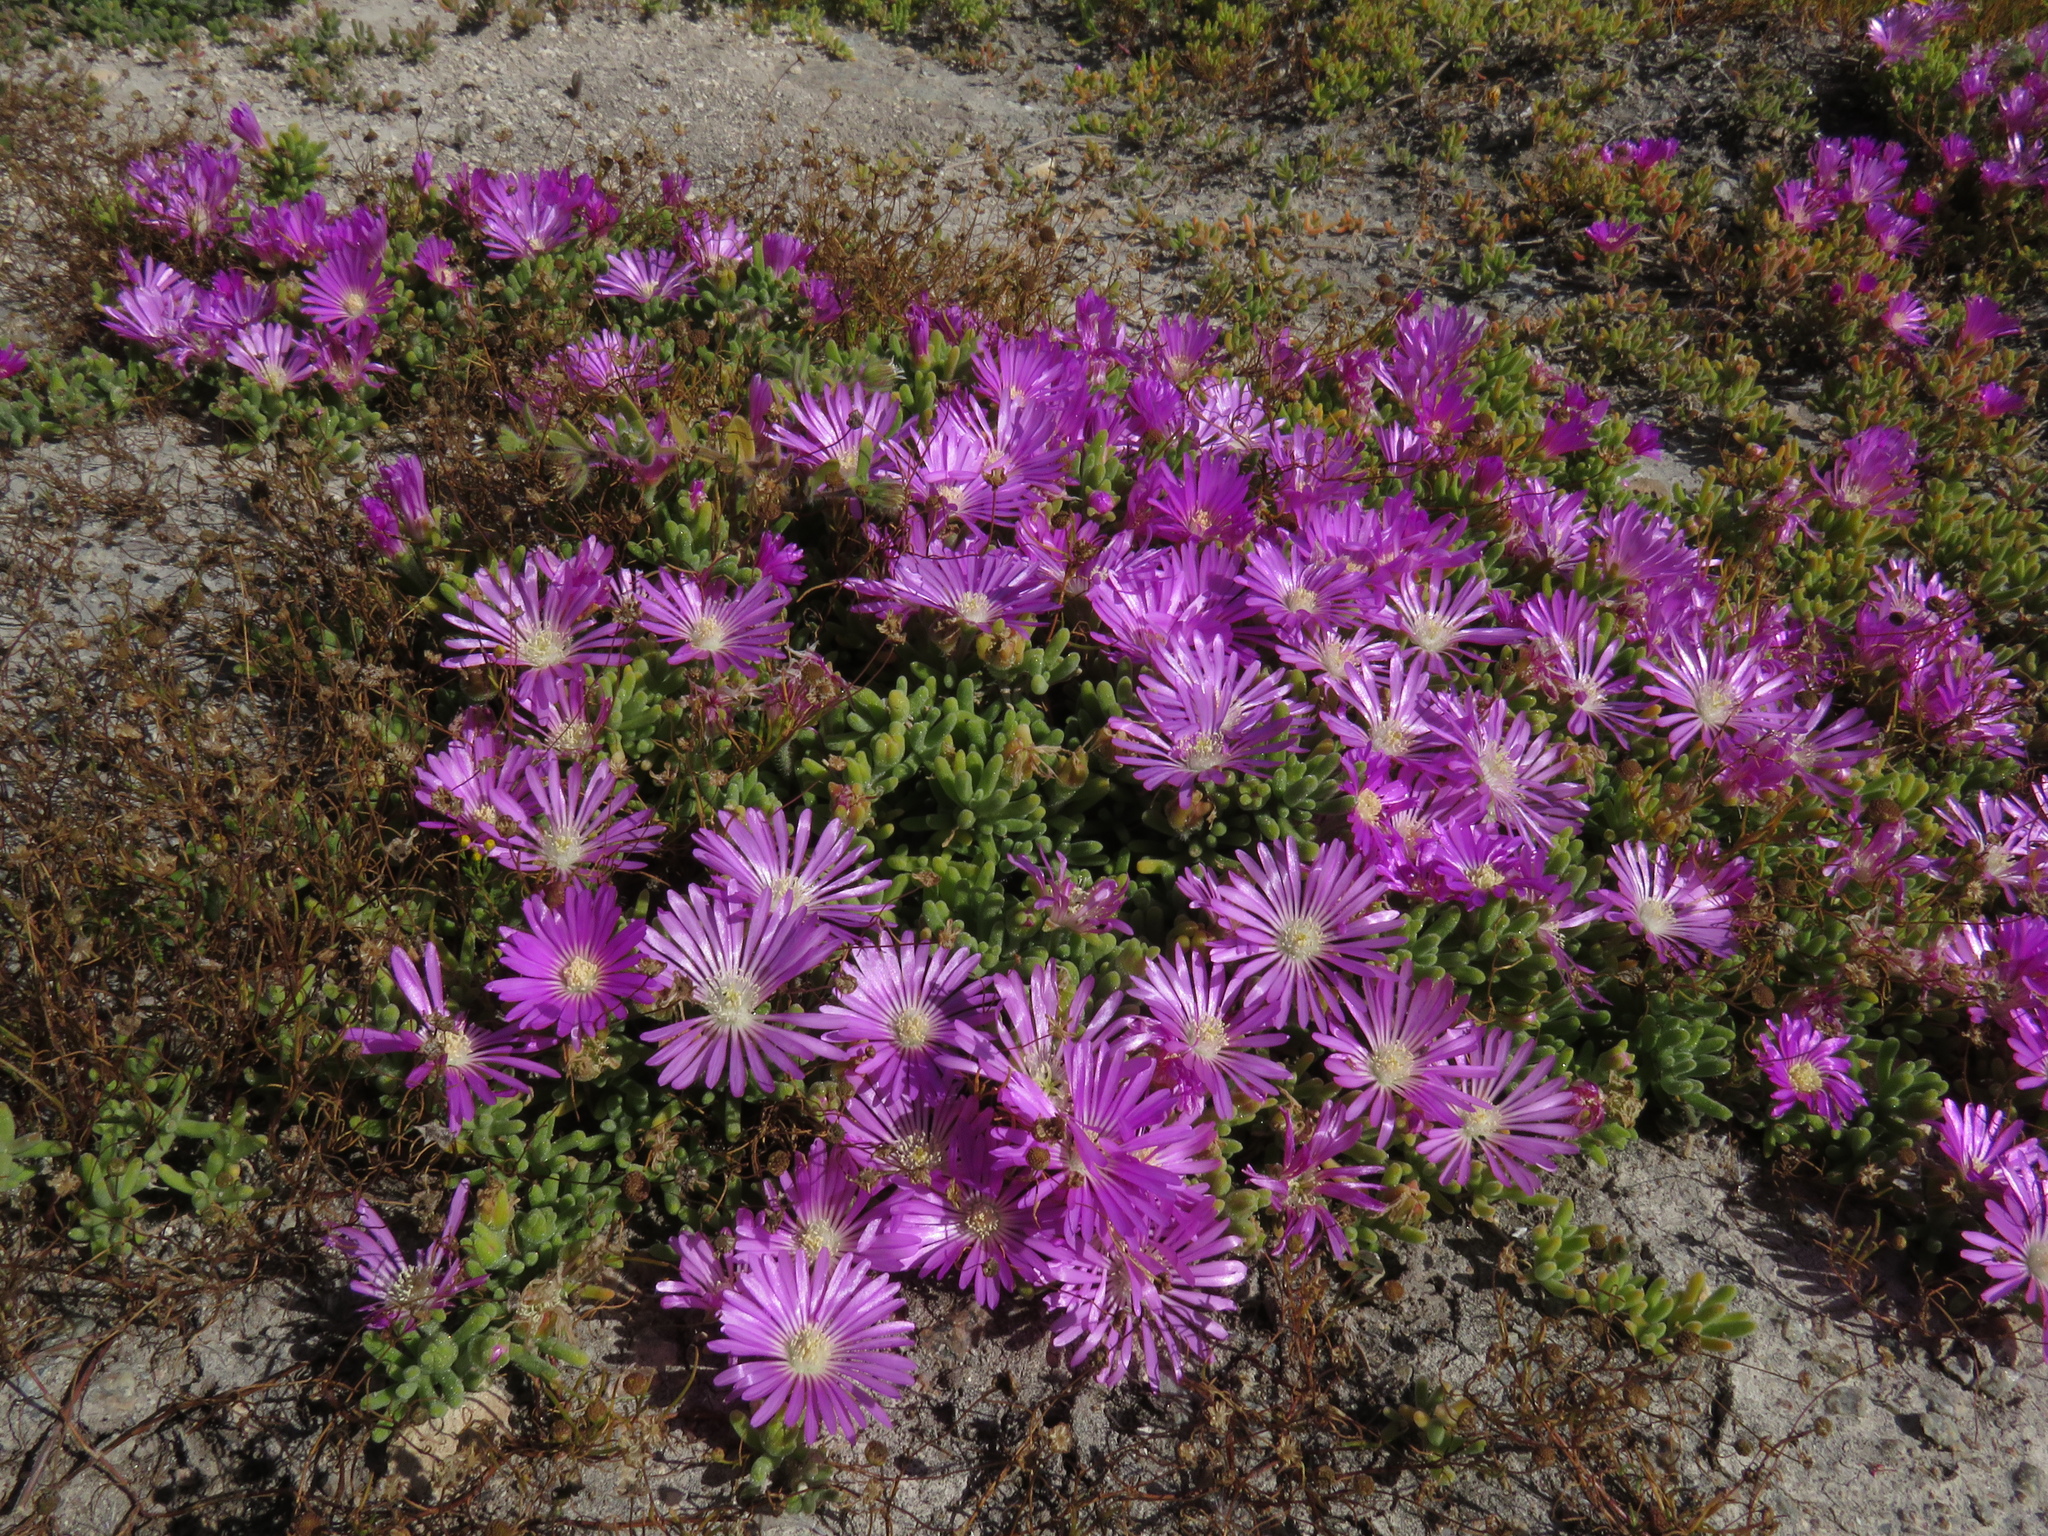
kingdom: Plantae
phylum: Tracheophyta
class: Magnoliopsida
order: Caryophyllales
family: Aizoaceae
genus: Drosanthemum
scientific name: Drosanthemum floribundum
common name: Pale dewplant
